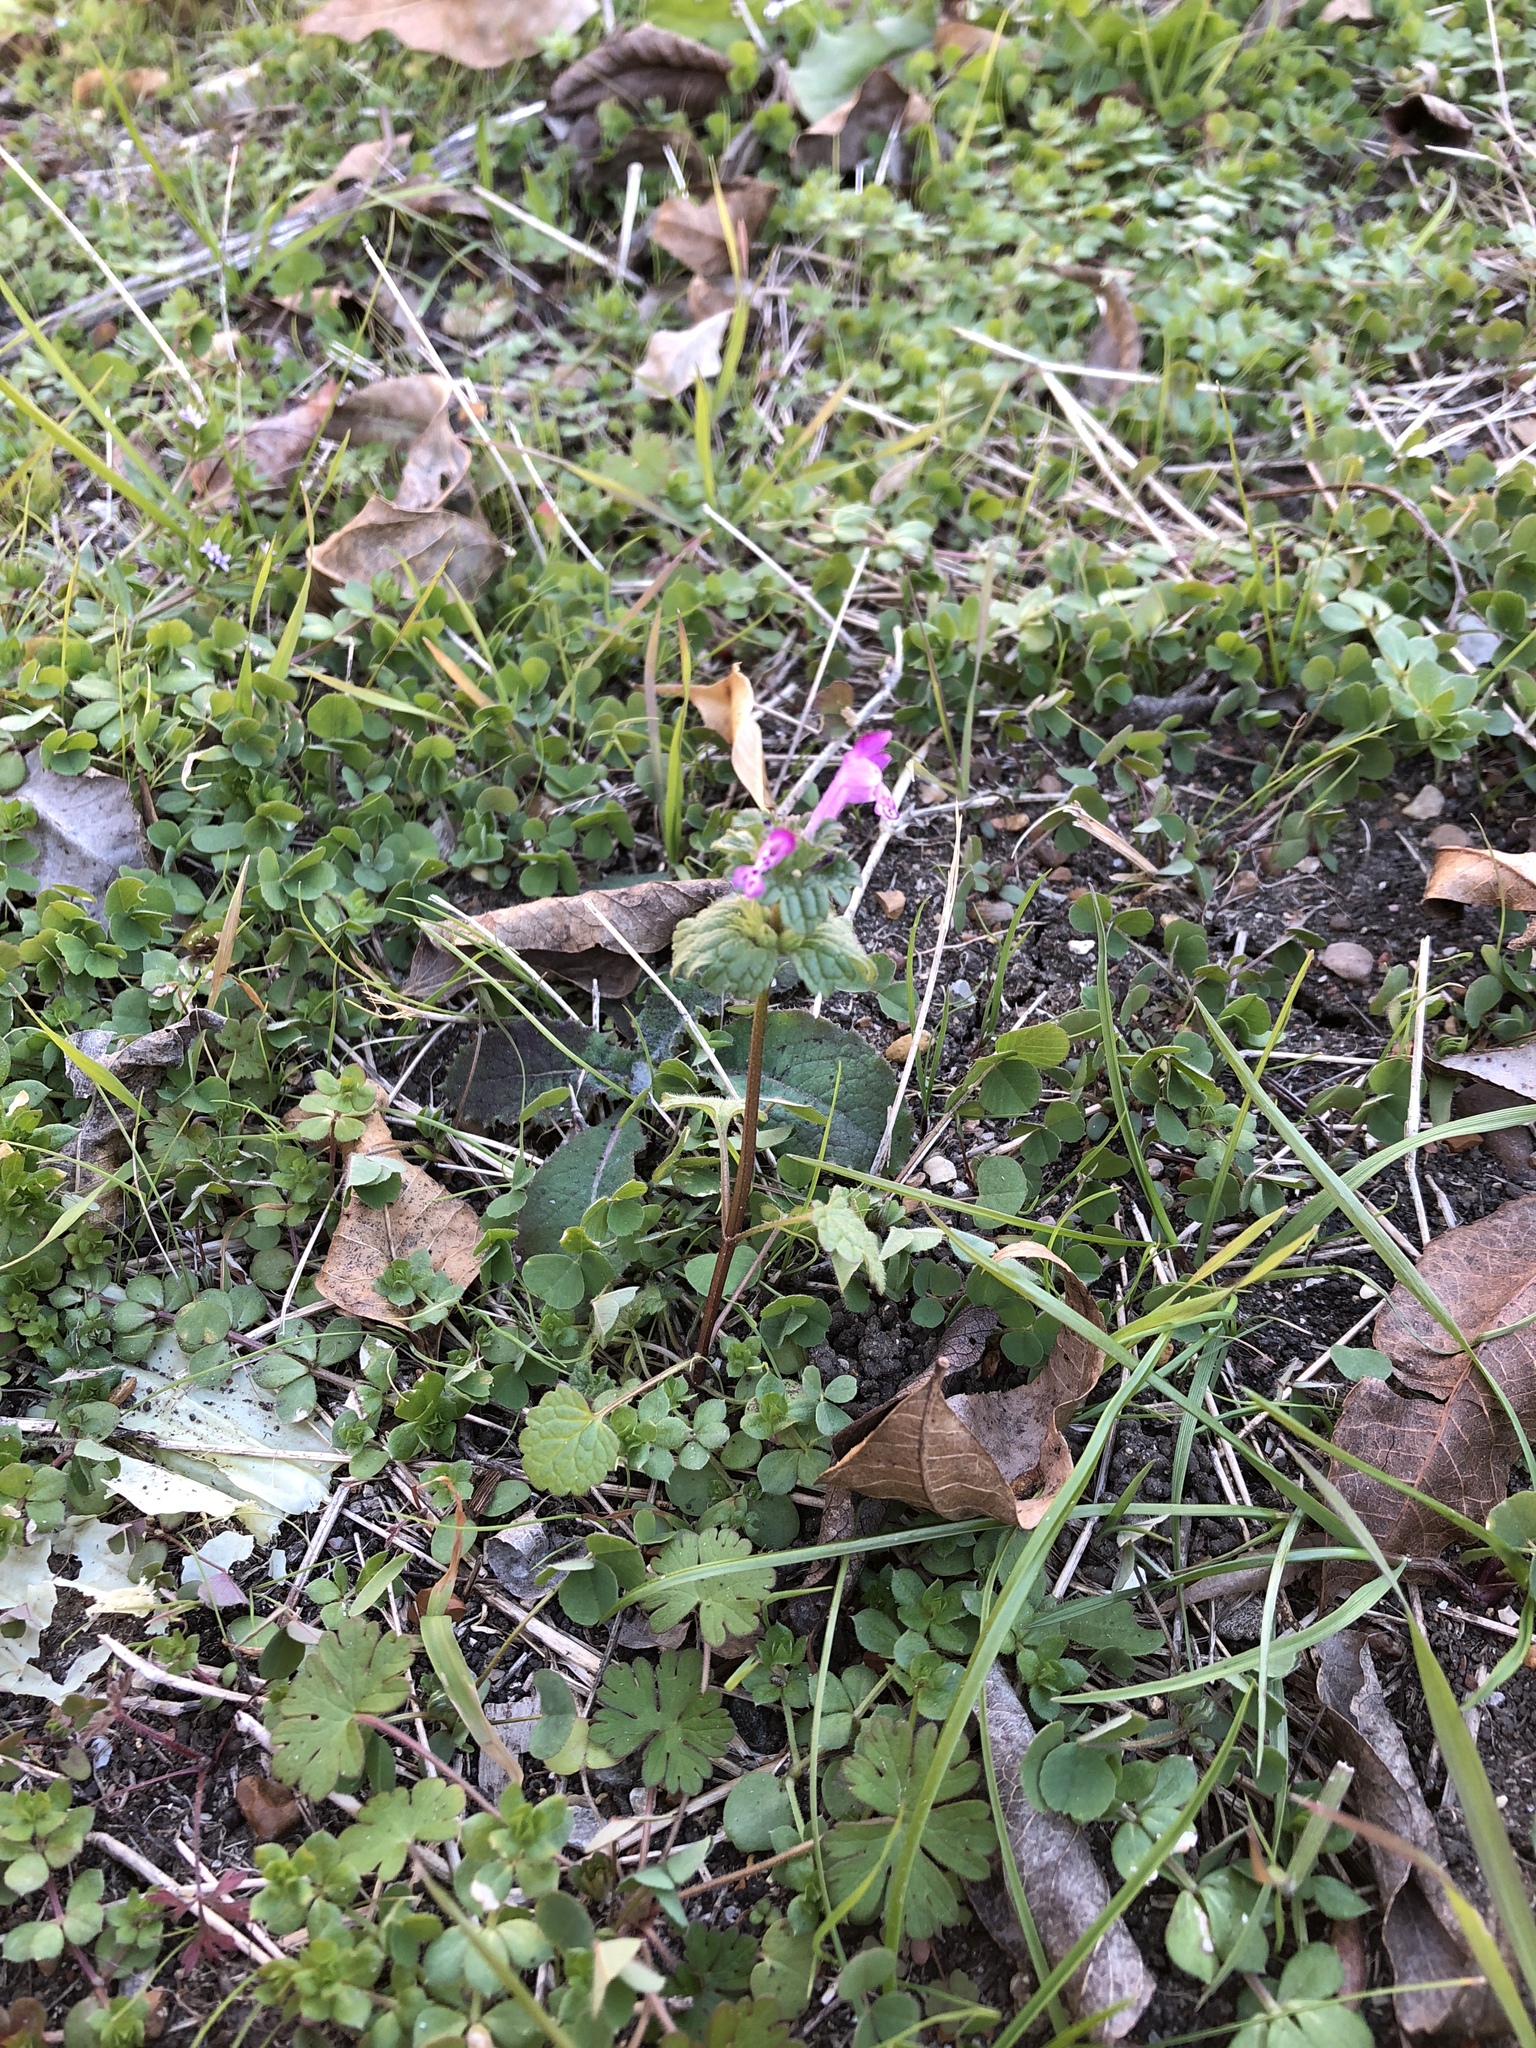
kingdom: Plantae
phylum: Tracheophyta
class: Magnoliopsida
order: Lamiales
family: Lamiaceae
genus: Lamium
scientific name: Lamium amplexicaule
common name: Henbit dead-nettle
